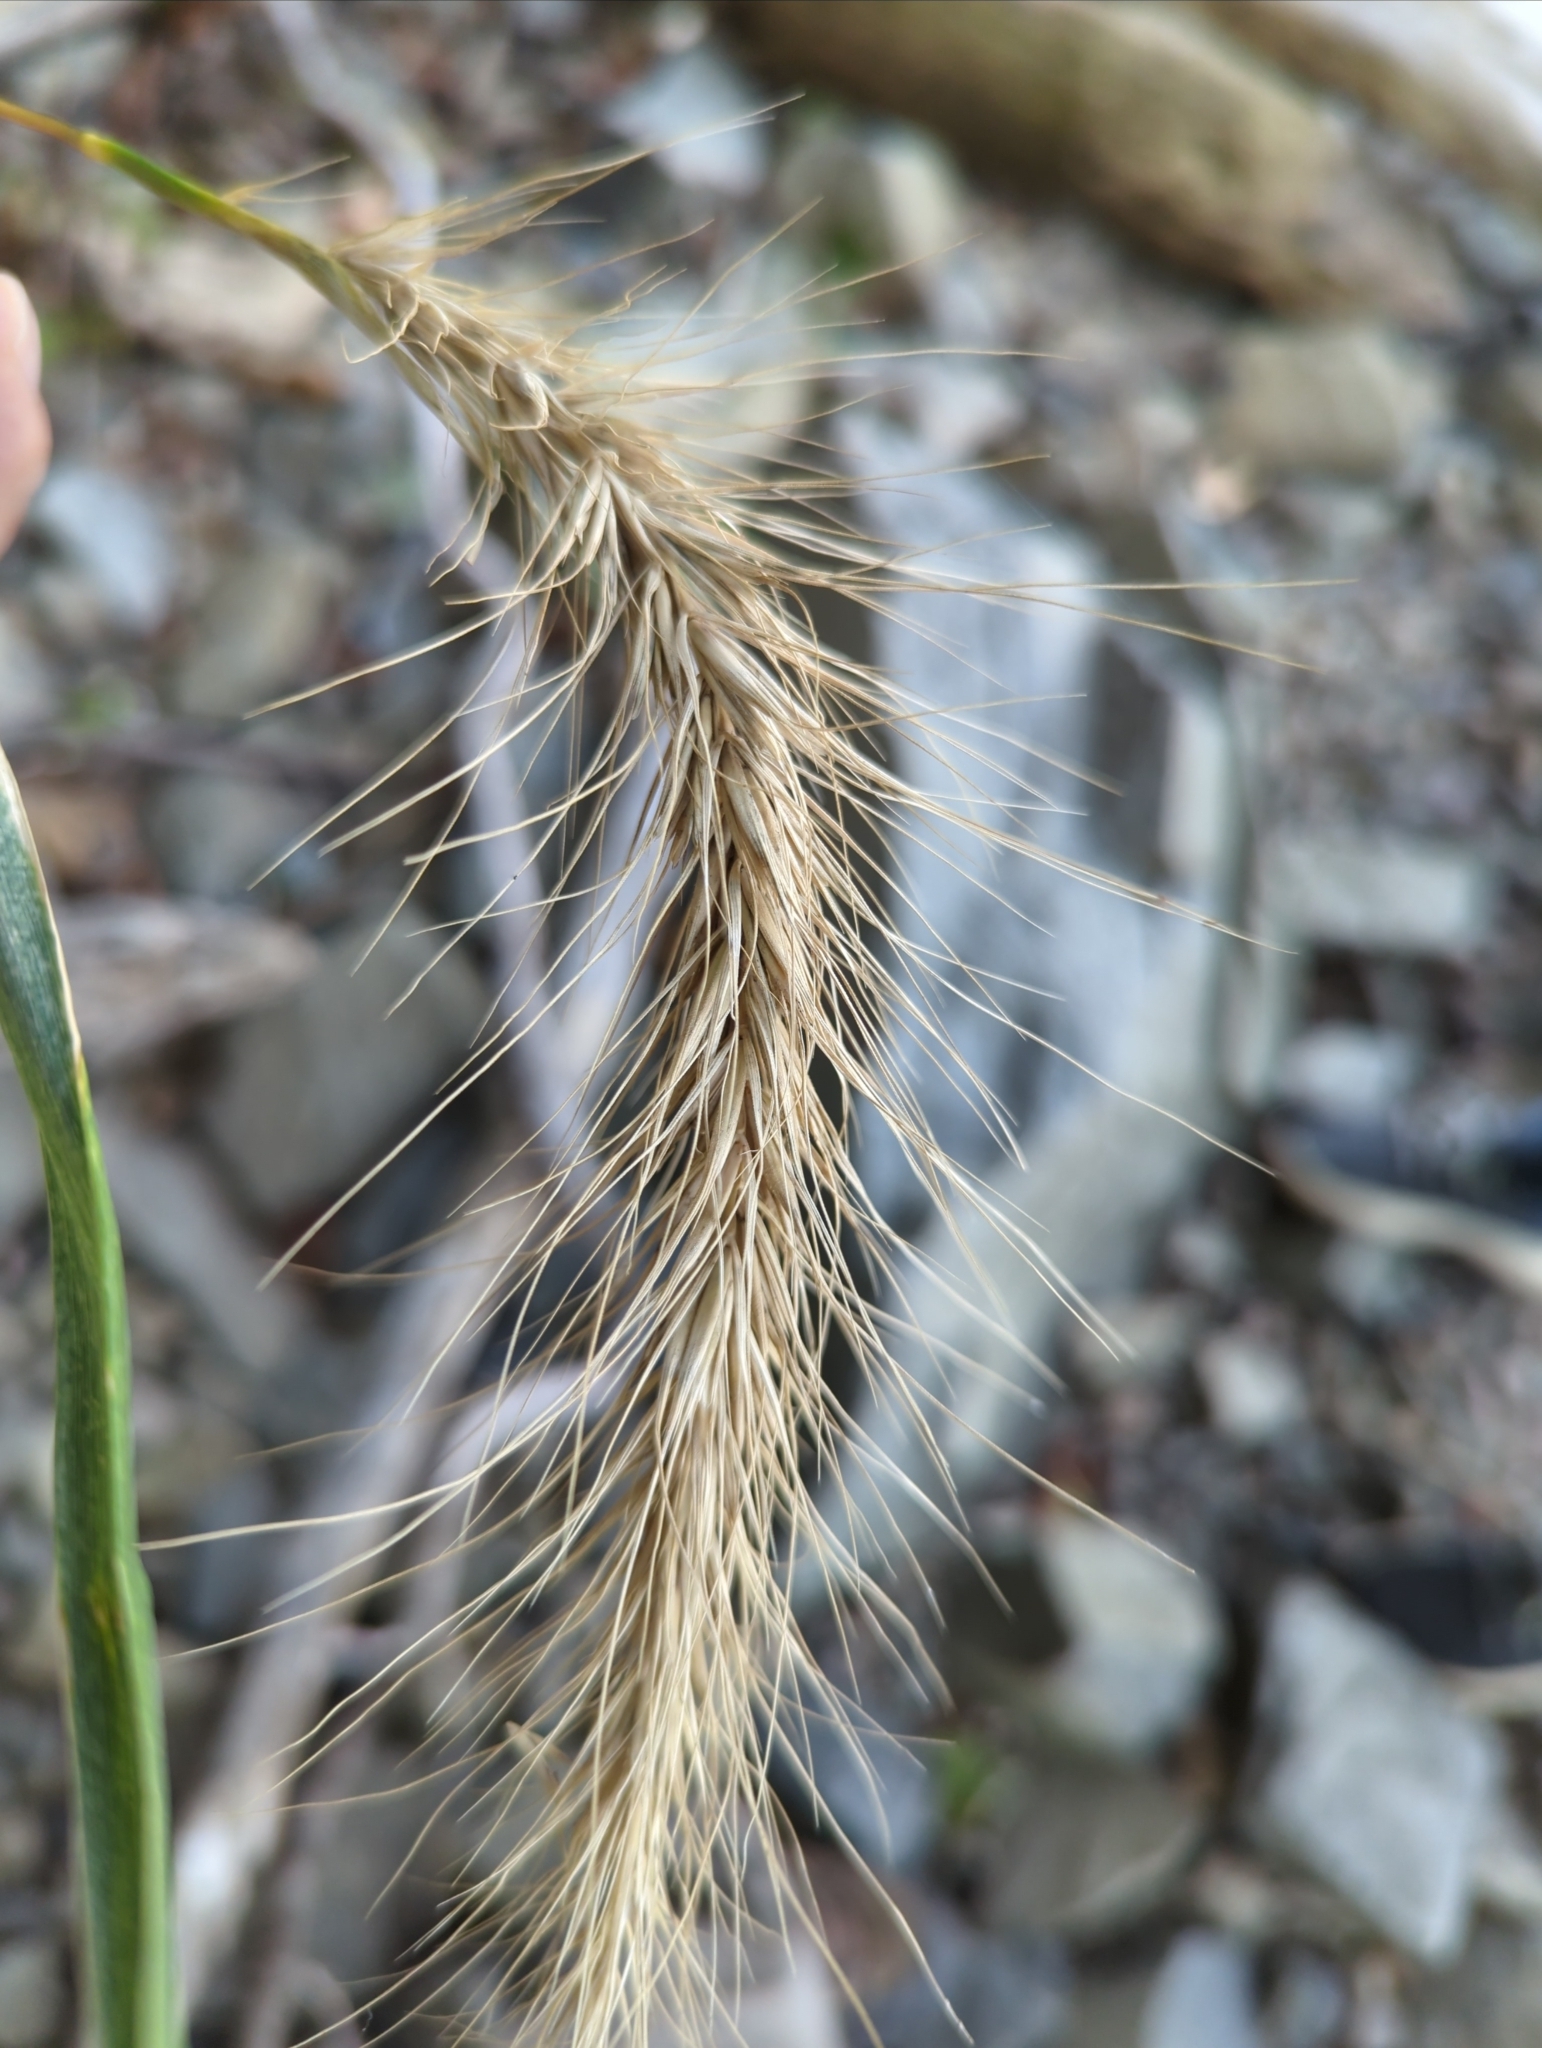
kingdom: Plantae
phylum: Tracheophyta
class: Liliopsida
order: Poales
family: Poaceae
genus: Elymus
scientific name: Elymus canadensis
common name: Canada wild rye
